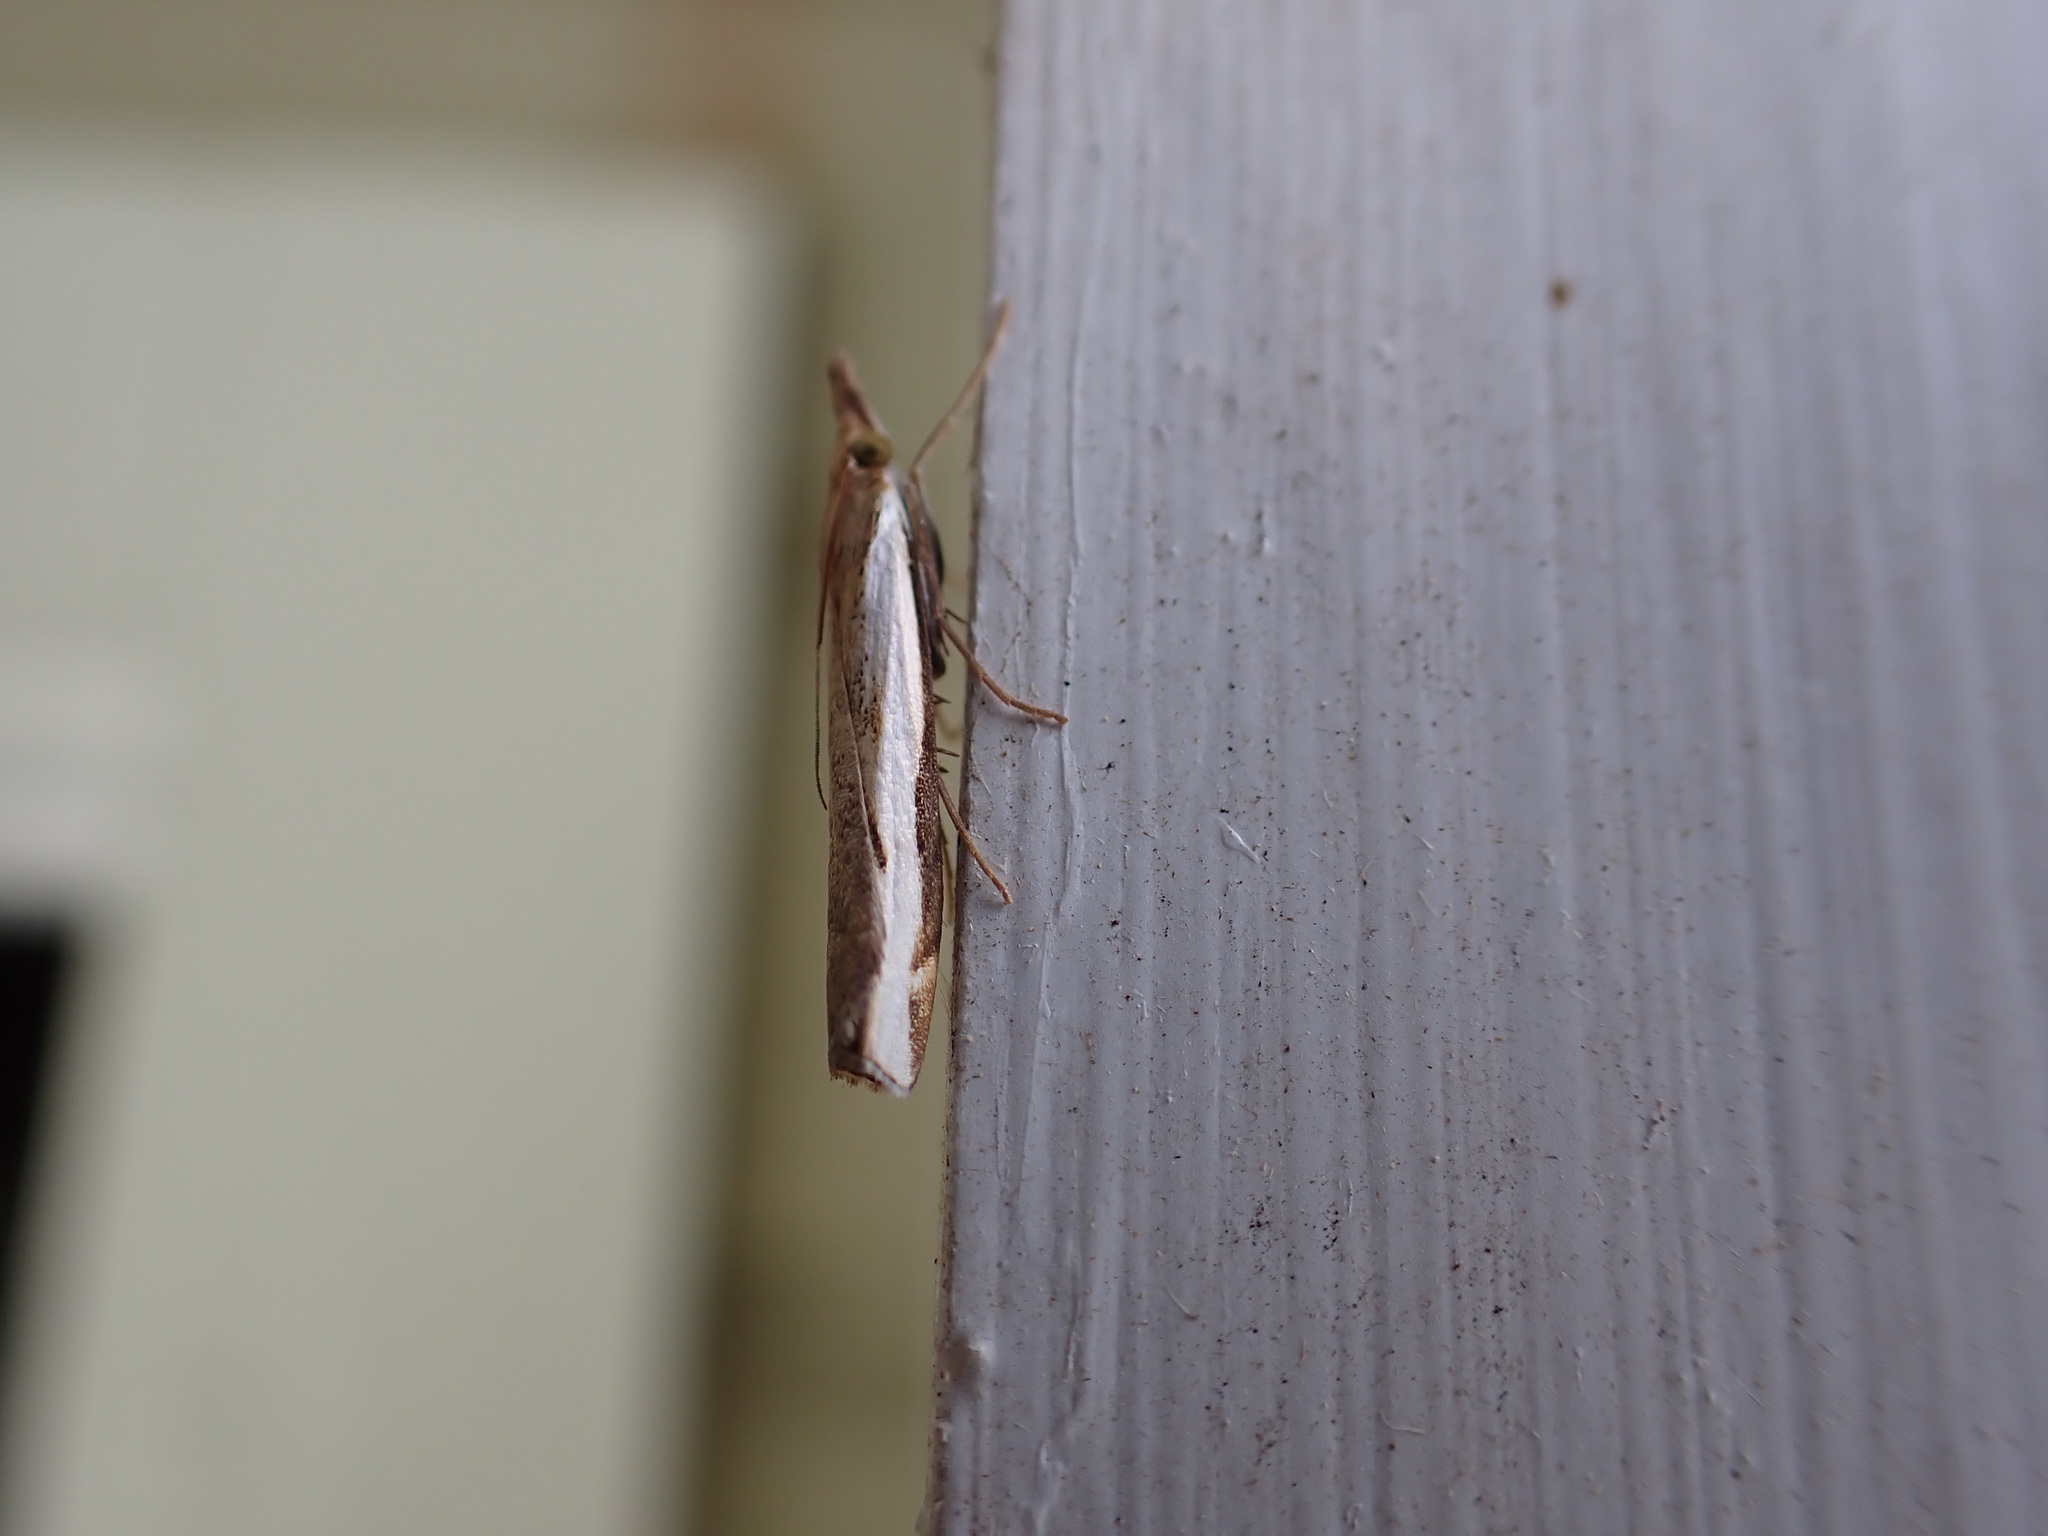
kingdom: Animalia
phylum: Arthropoda
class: Insecta
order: Lepidoptera
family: Crambidae
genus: Orocrambus
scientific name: Orocrambus flexuosellus
